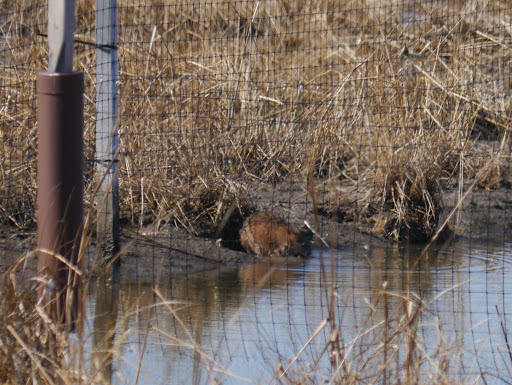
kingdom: Animalia
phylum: Chordata
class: Mammalia
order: Rodentia
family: Cricetidae
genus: Ondatra
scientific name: Ondatra zibethicus
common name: Muskrat
